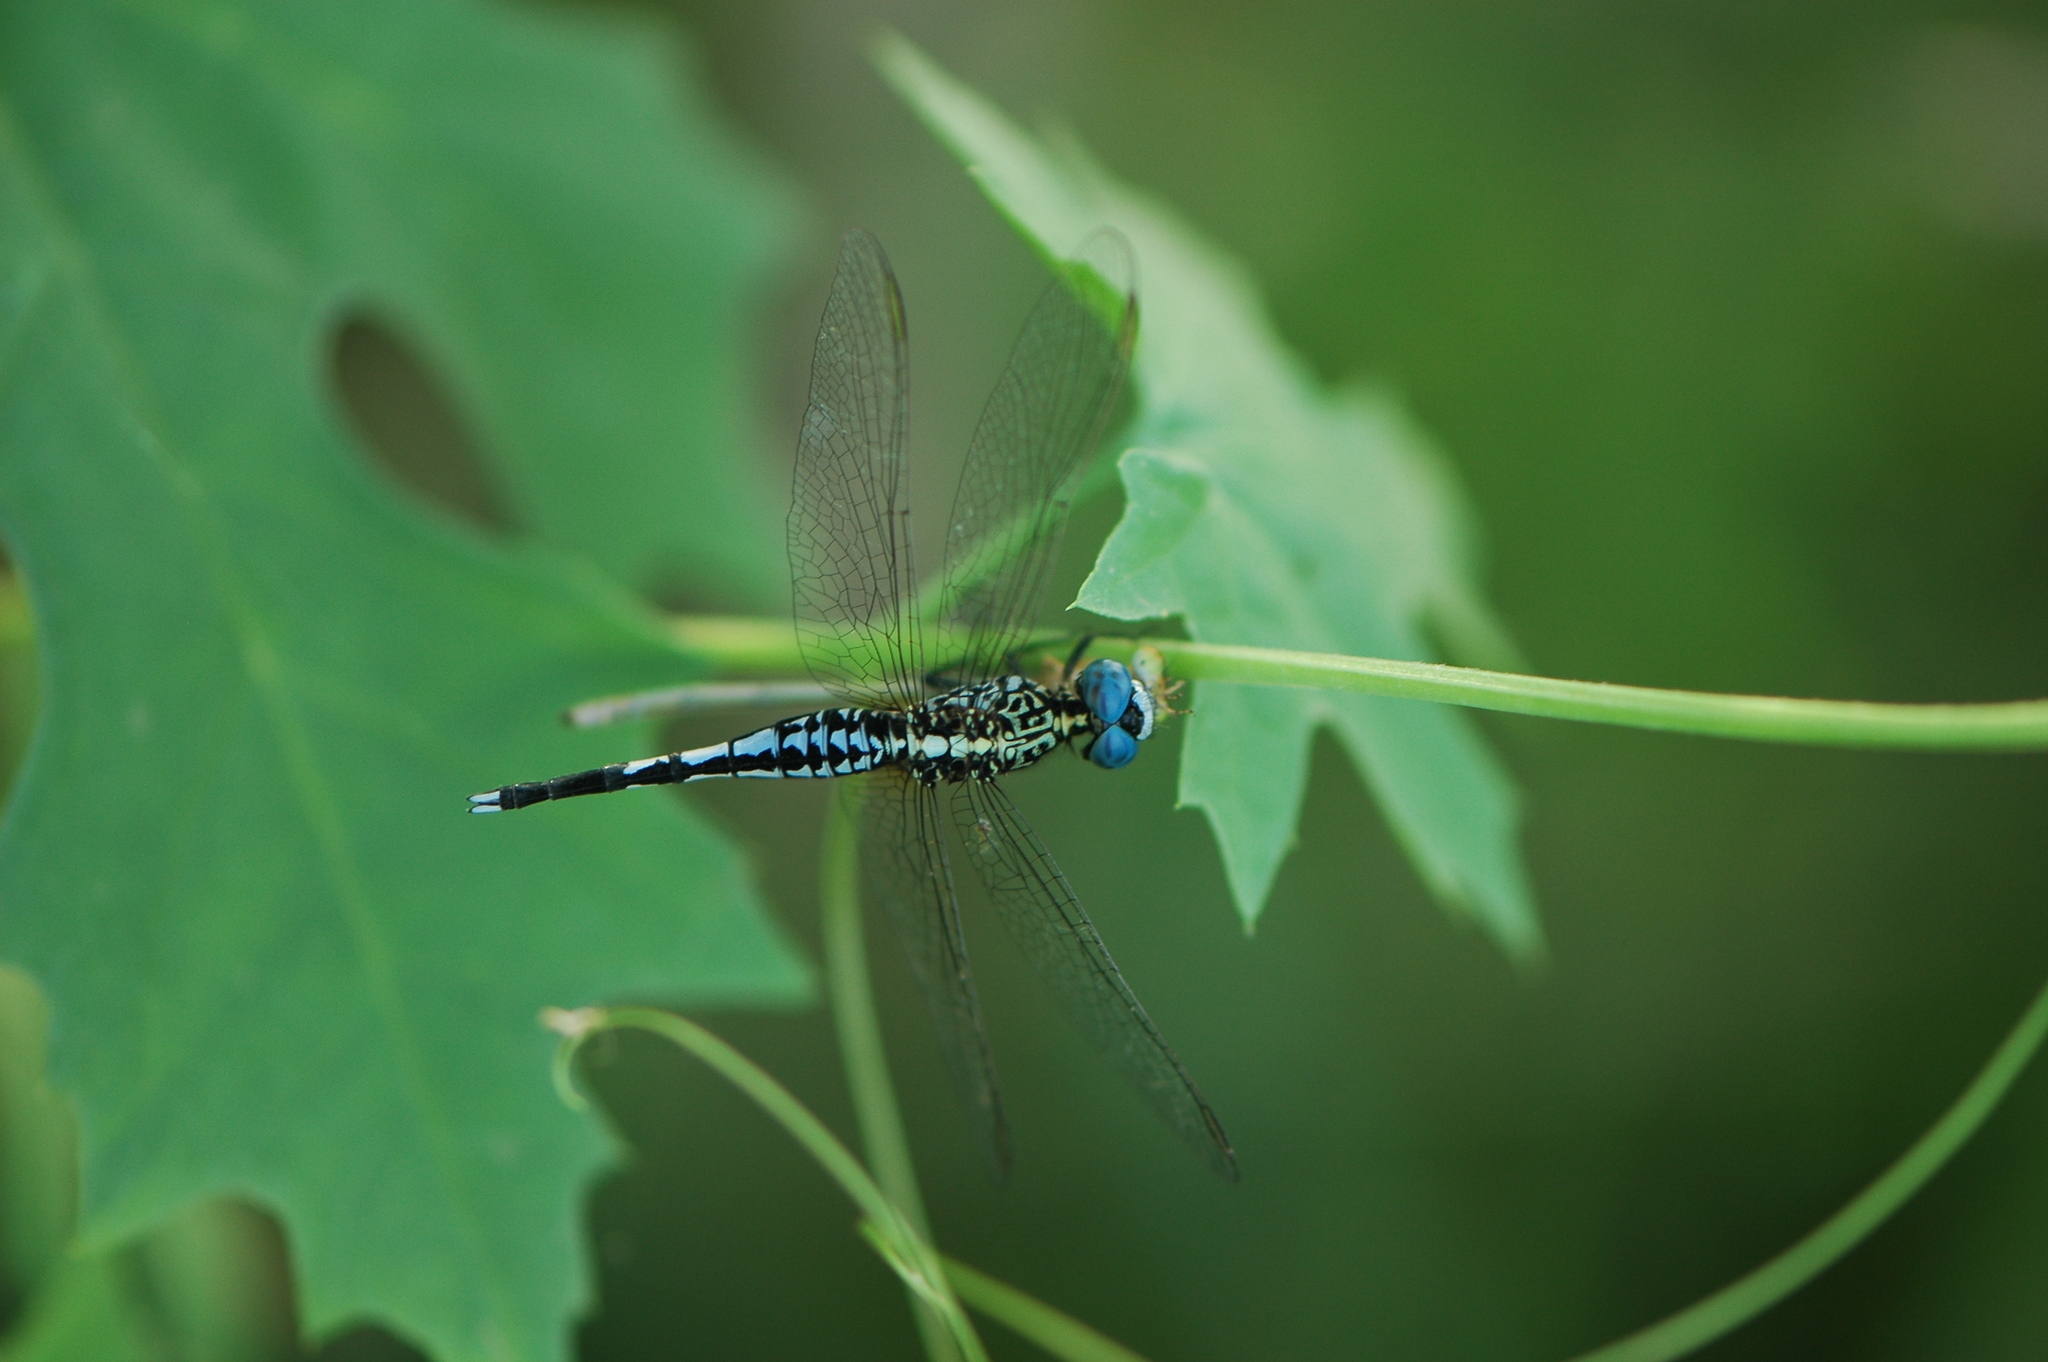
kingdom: Animalia
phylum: Arthropoda
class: Insecta
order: Odonata
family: Libellulidae
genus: Acisoma
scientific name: Acisoma inflatum
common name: Stout pintail
